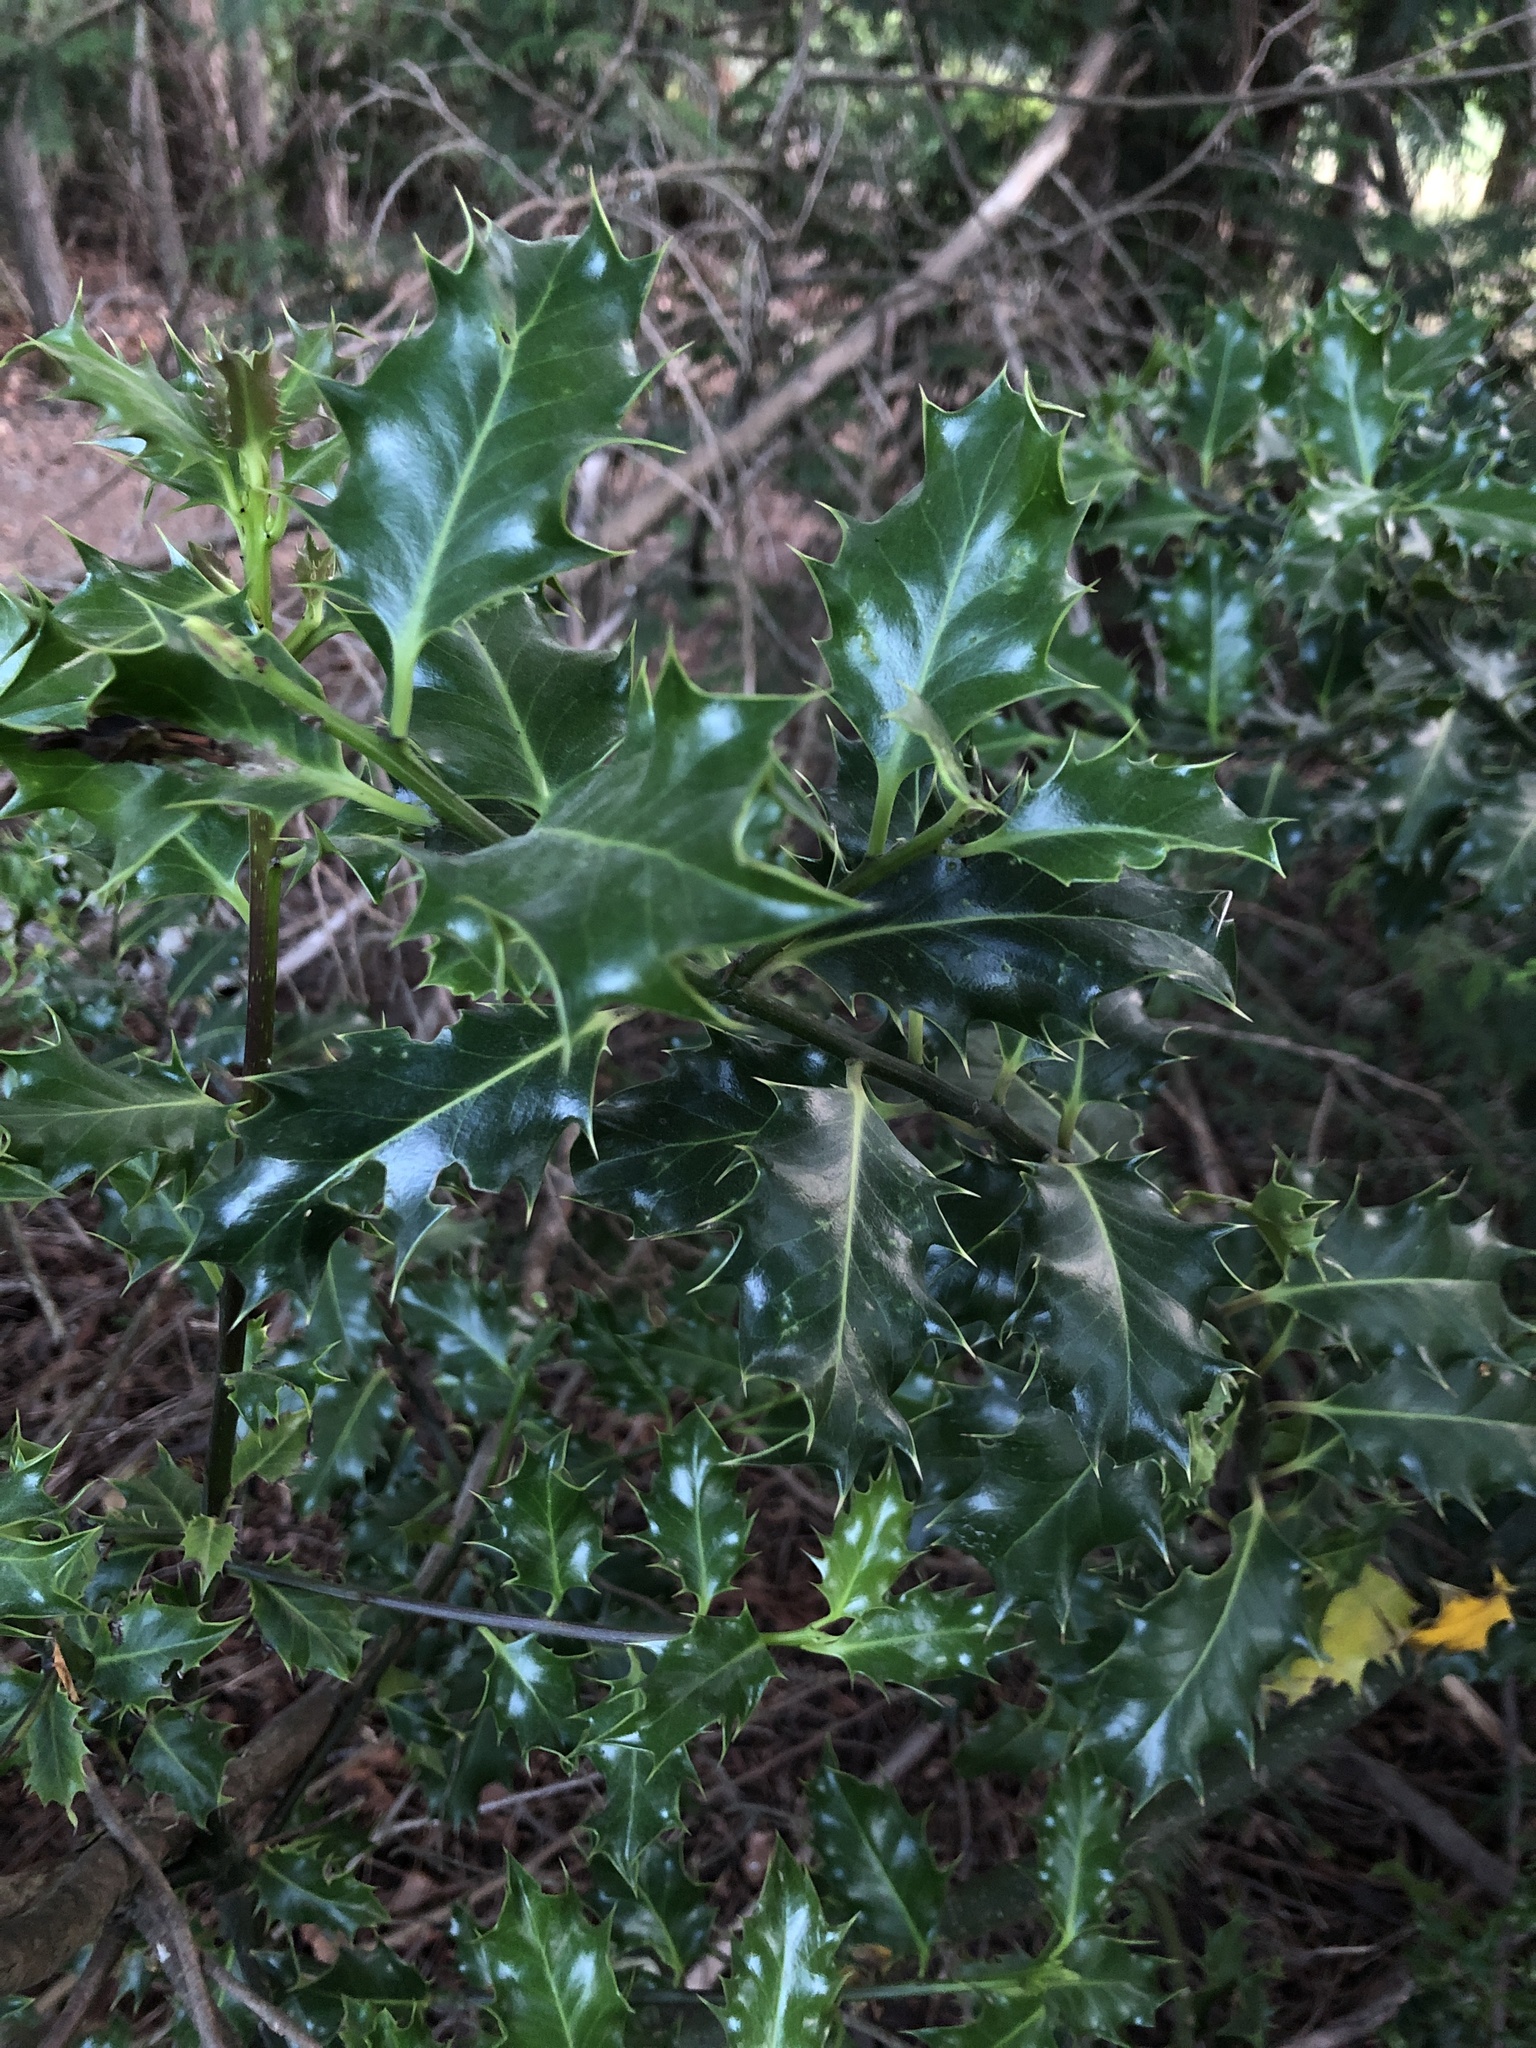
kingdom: Plantae
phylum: Tracheophyta
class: Magnoliopsida
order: Aquifoliales
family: Aquifoliaceae
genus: Ilex
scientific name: Ilex aquifolium
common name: English holly
